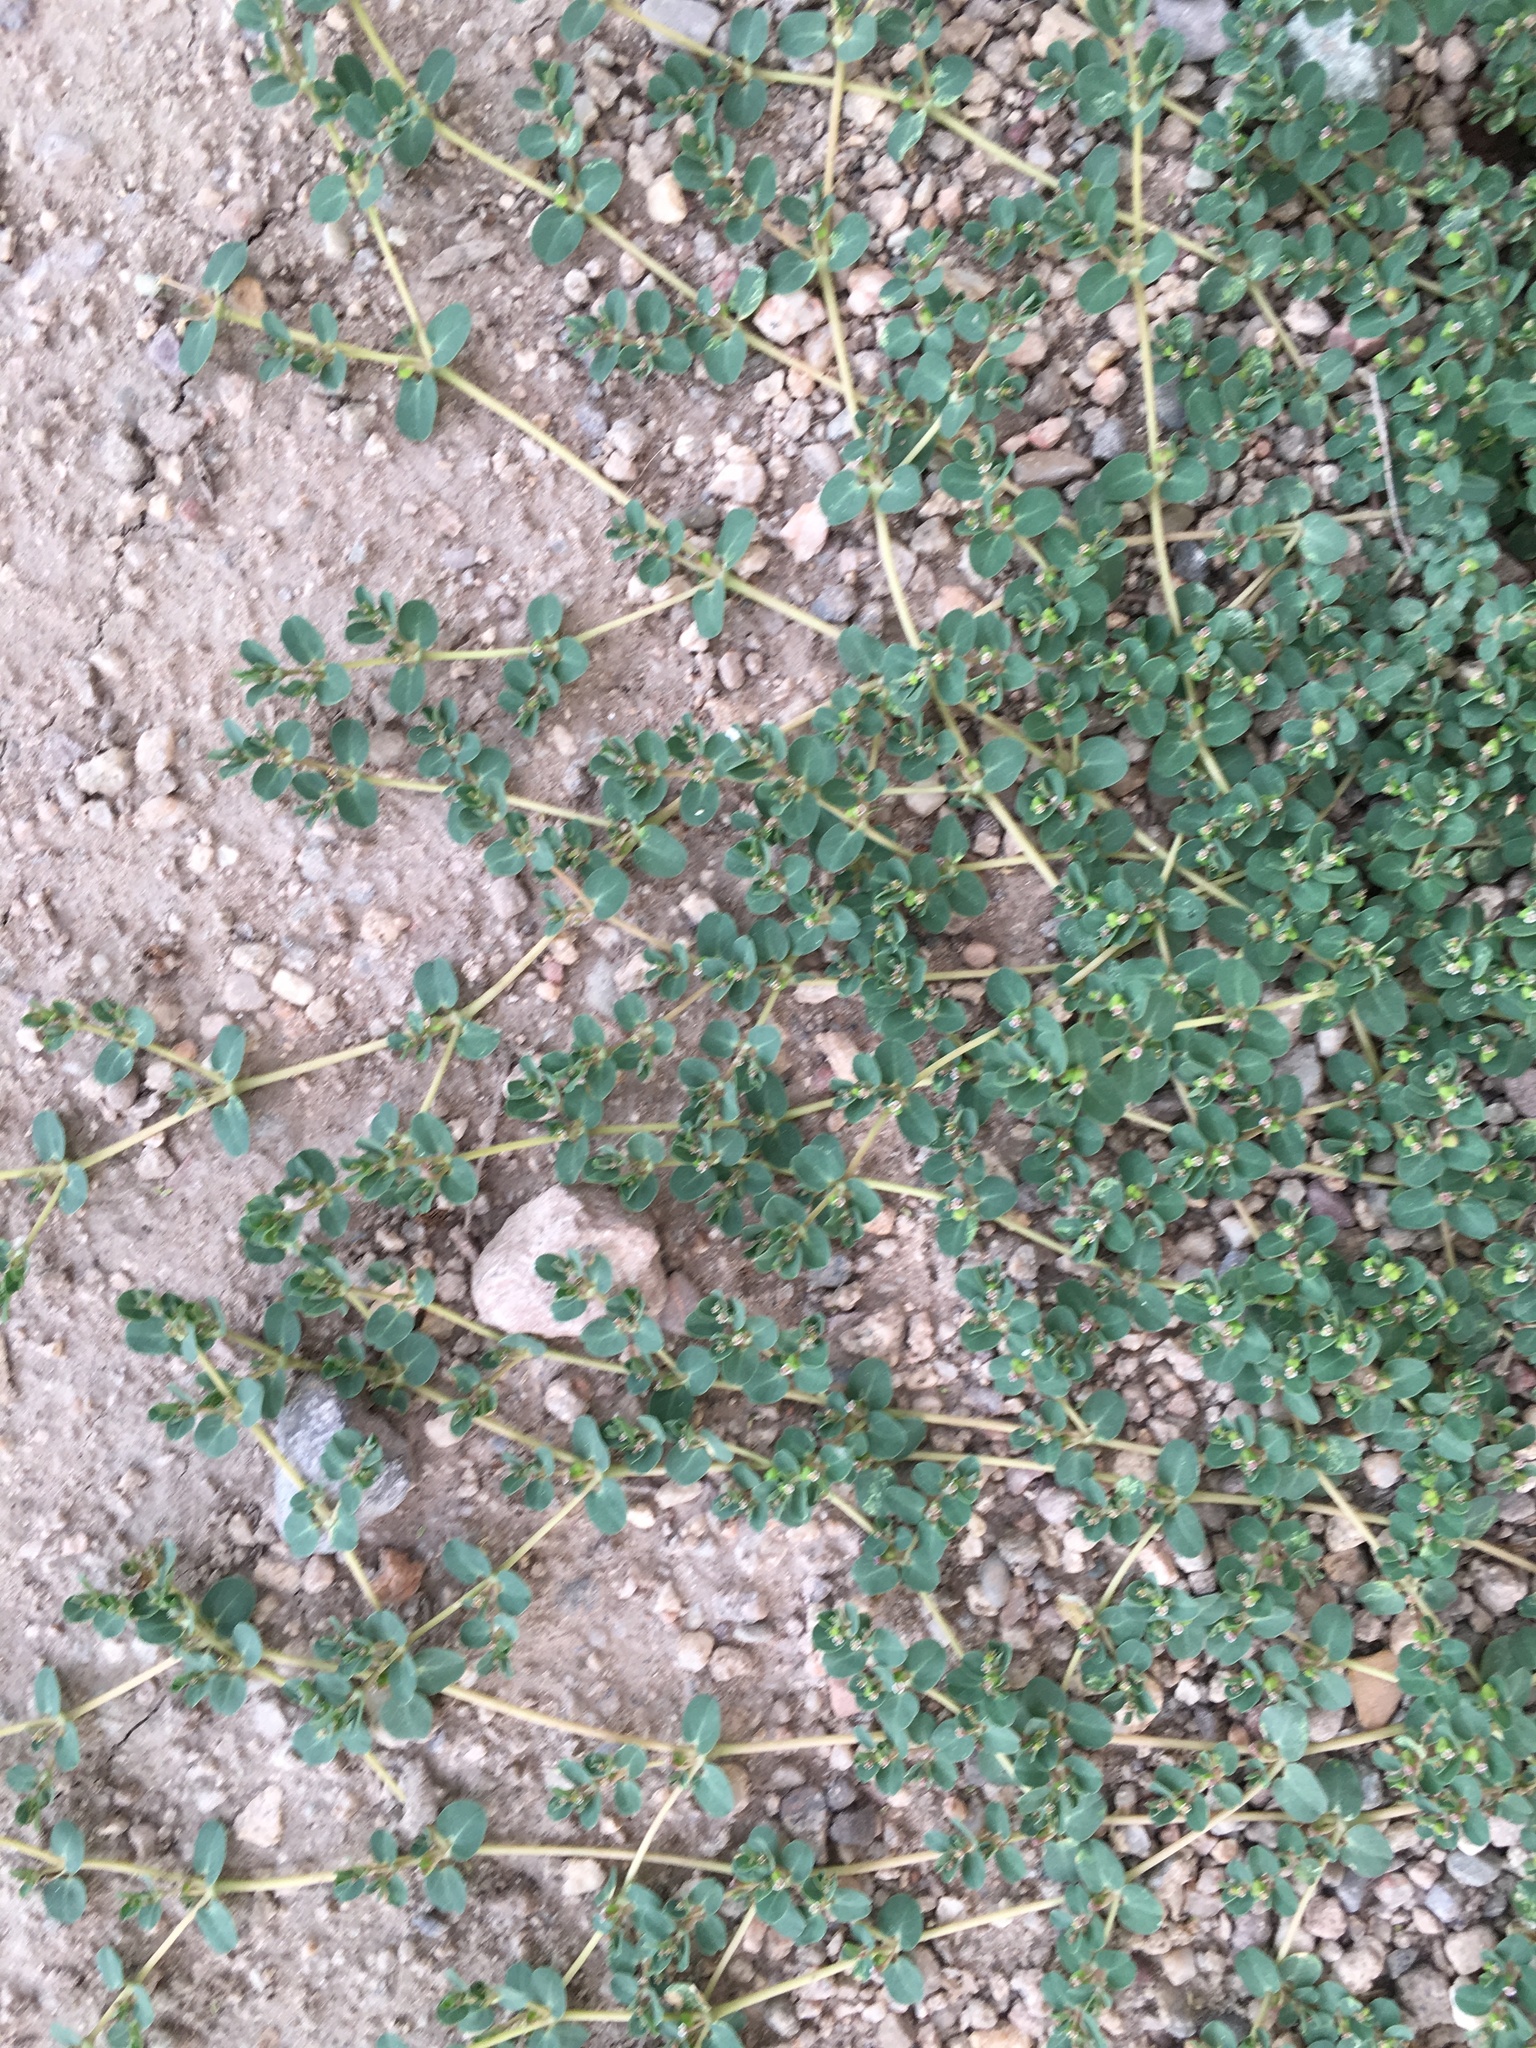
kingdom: Plantae
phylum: Tracheophyta
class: Magnoliopsida
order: Malpighiales
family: Euphorbiaceae
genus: Euphorbia
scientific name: Euphorbia serpens
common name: Matted sandmat
